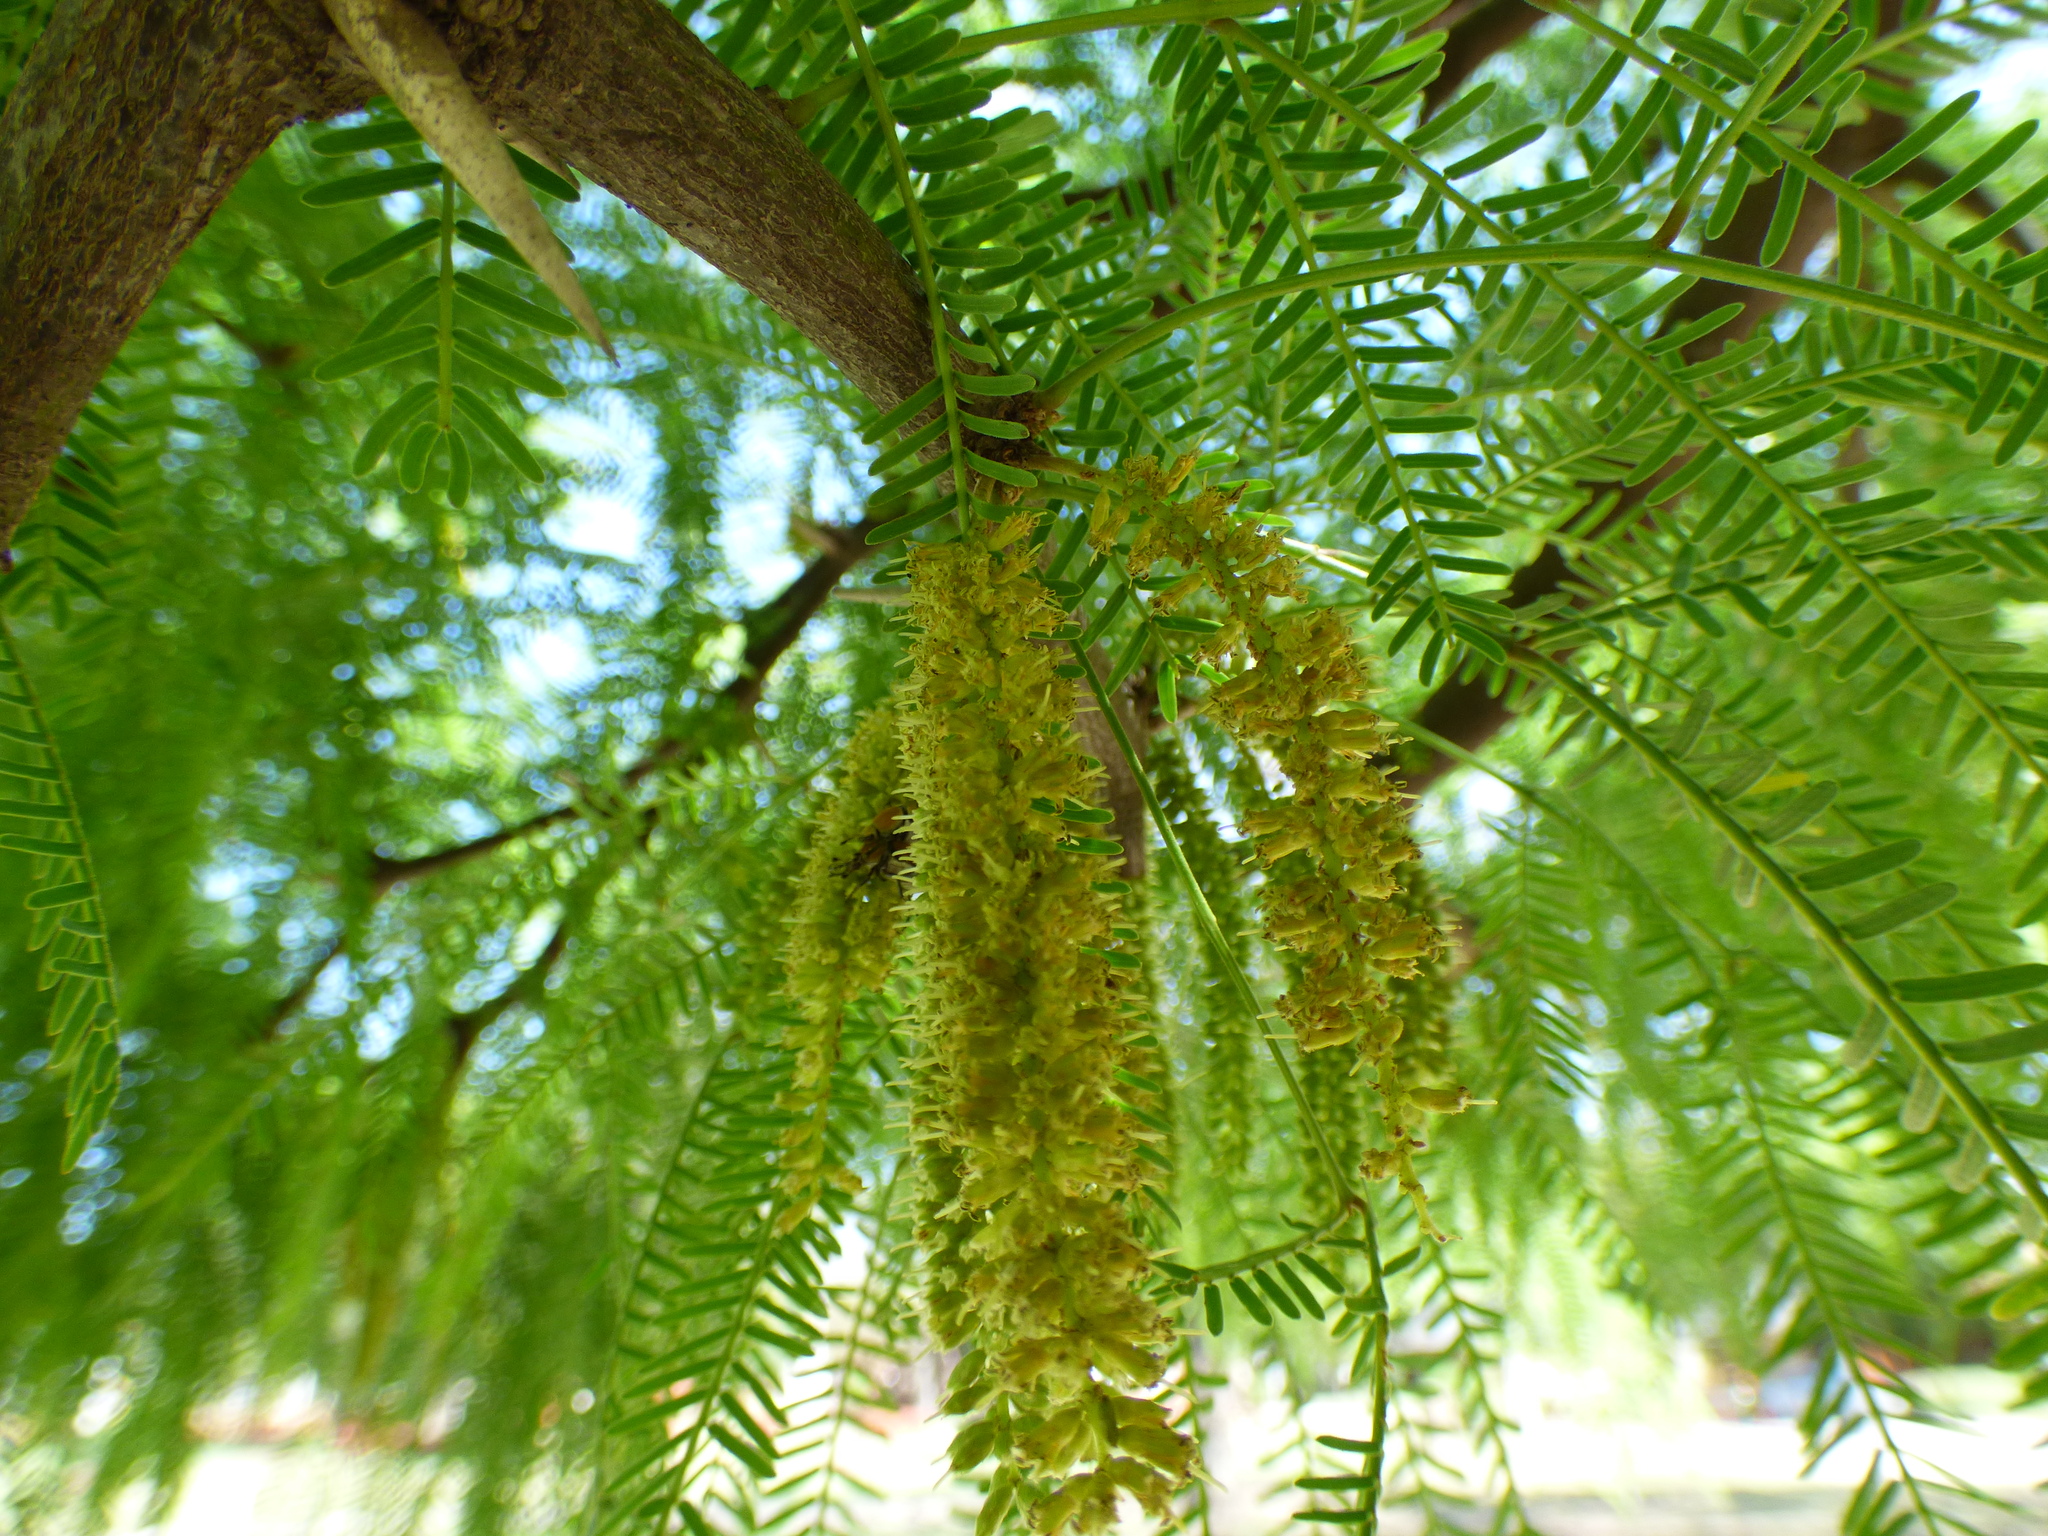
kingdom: Plantae
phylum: Tracheophyta
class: Magnoliopsida
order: Fabales
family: Fabaceae
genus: Prosopis
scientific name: Prosopis alba
